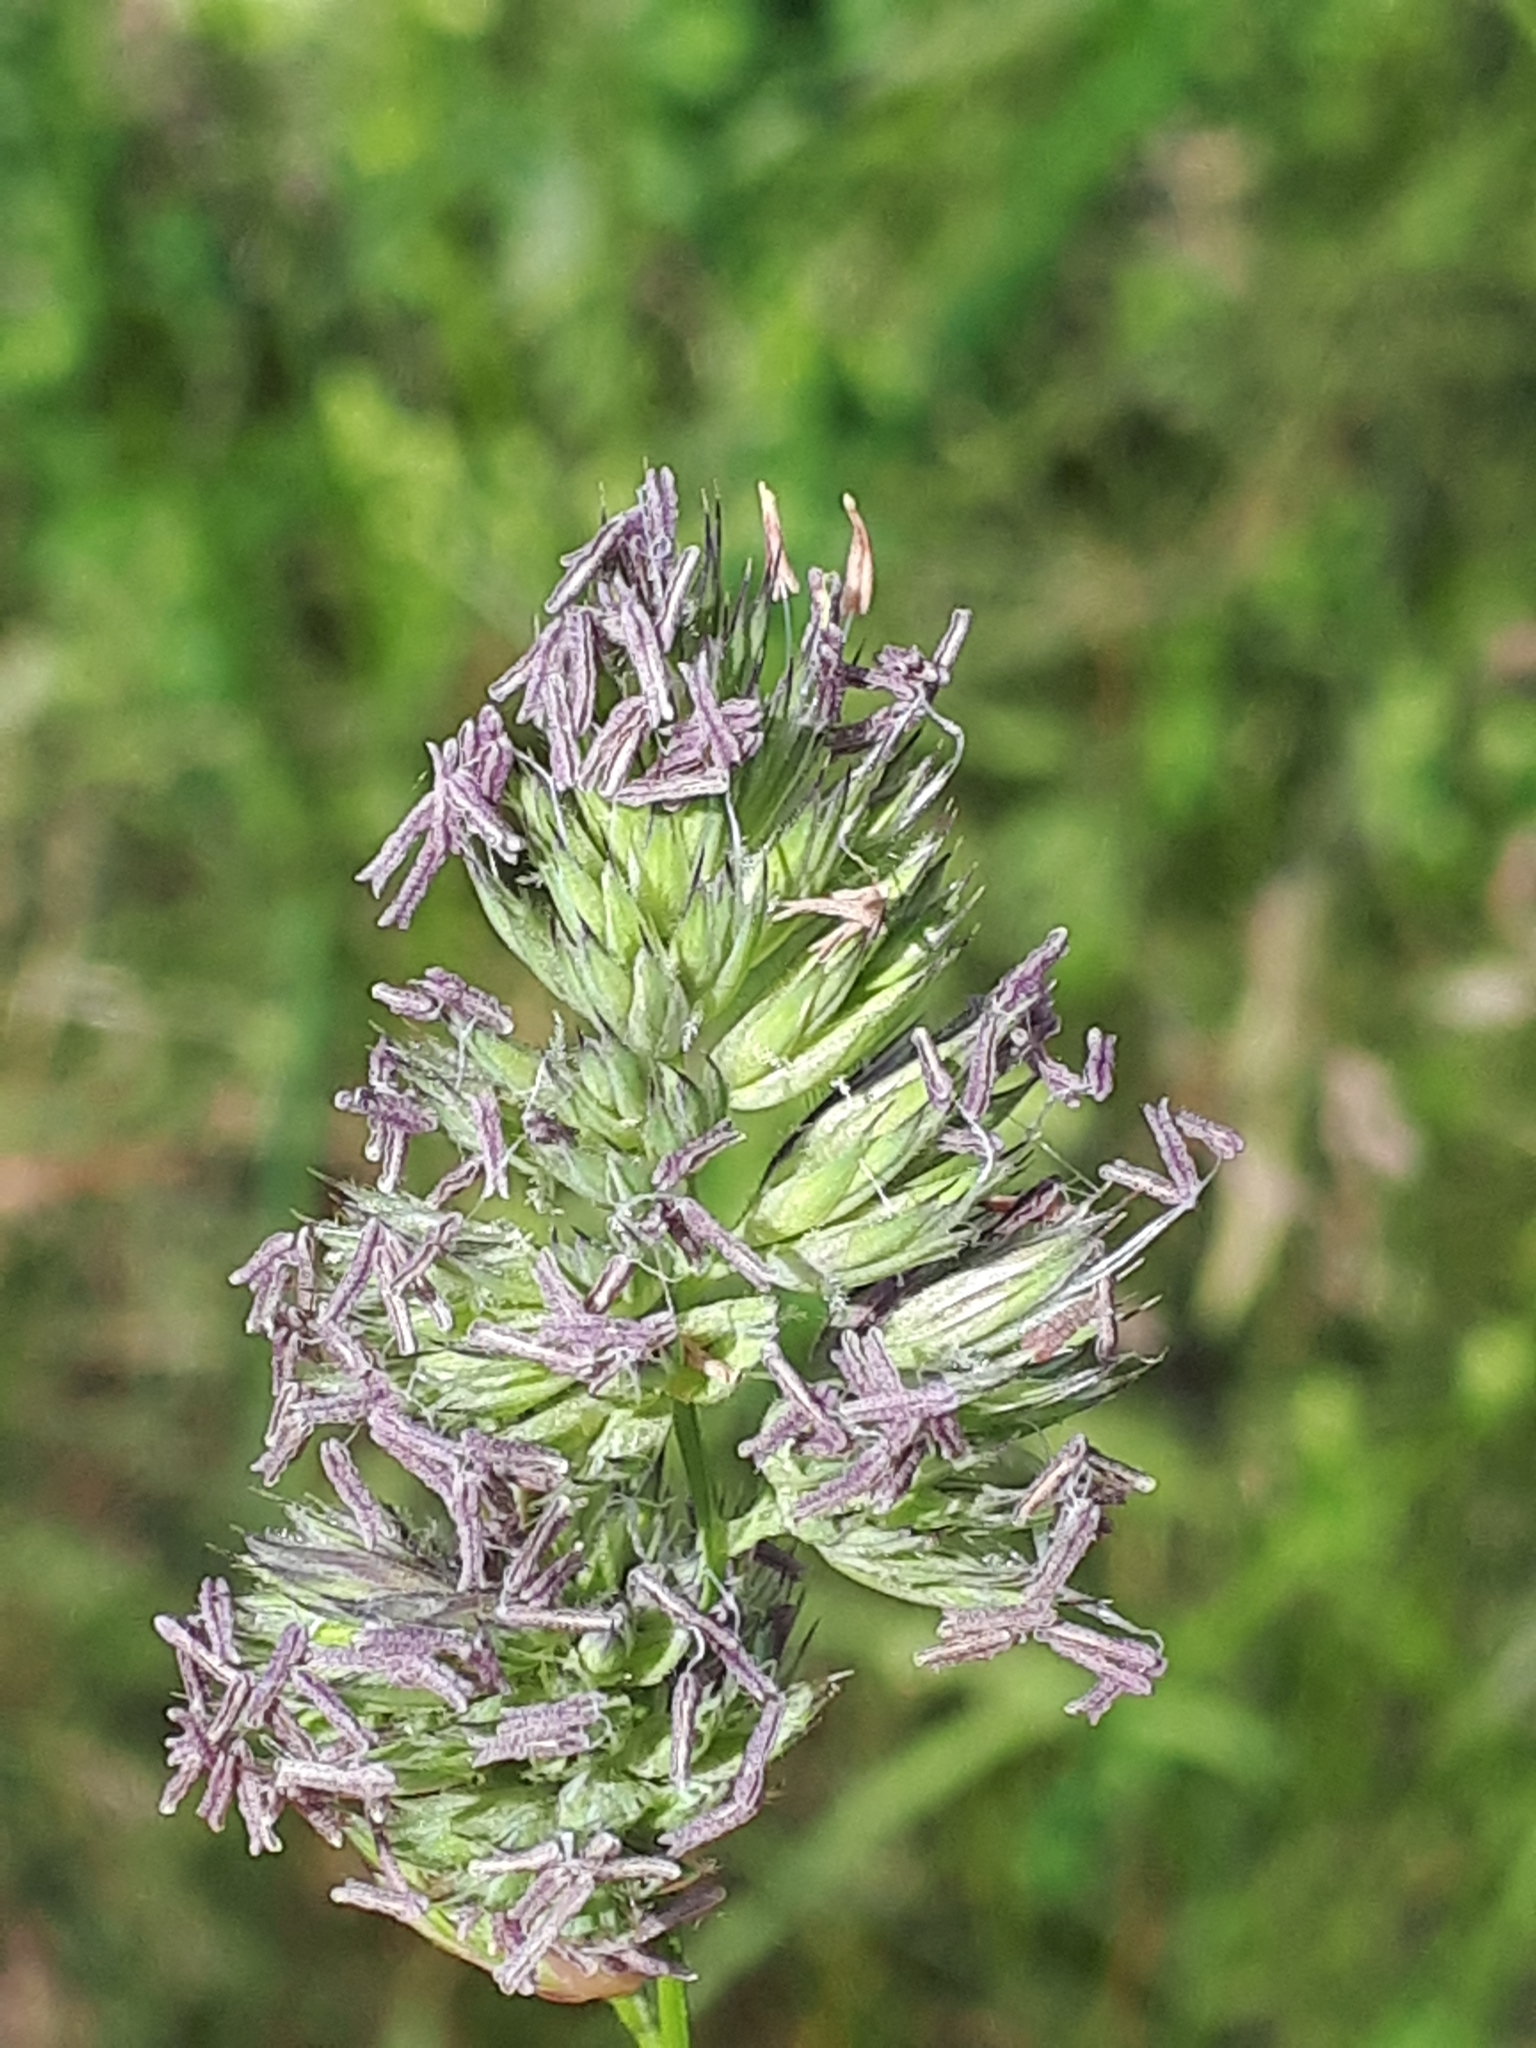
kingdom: Plantae
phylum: Tracheophyta
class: Liliopsida
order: Poales
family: Poaceae
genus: Dactylis
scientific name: Dactylis glomerata
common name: Orchardgrass
